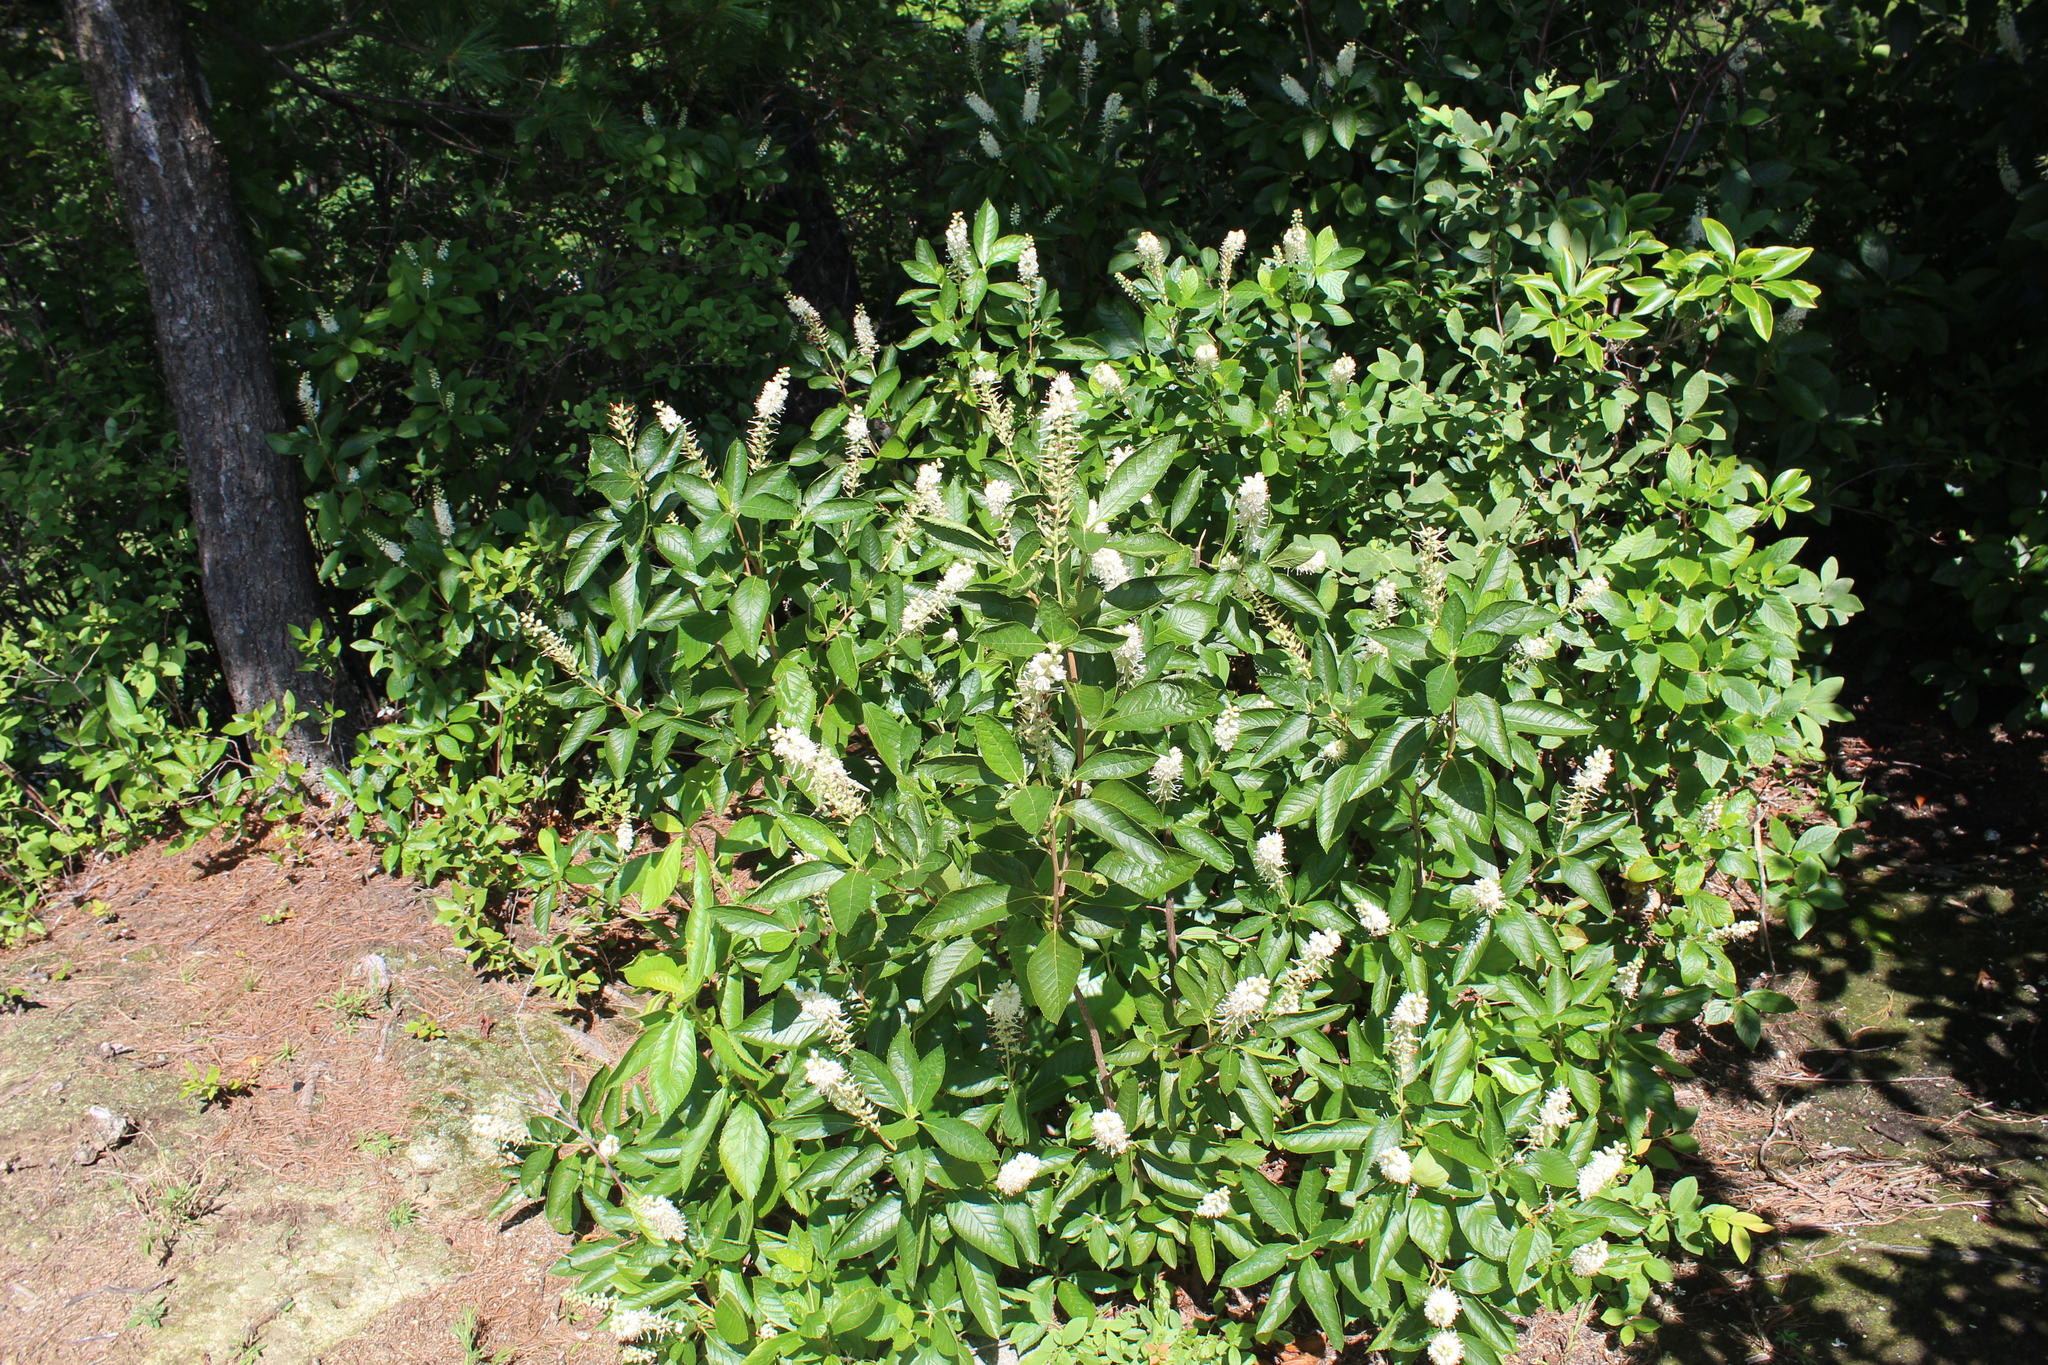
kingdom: Plantae
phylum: Tracheophyta
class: Magnoliopsida
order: Ericales
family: Clethraceae
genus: Clethra
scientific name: Clethra alnifolia
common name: Sweet pepperbush
